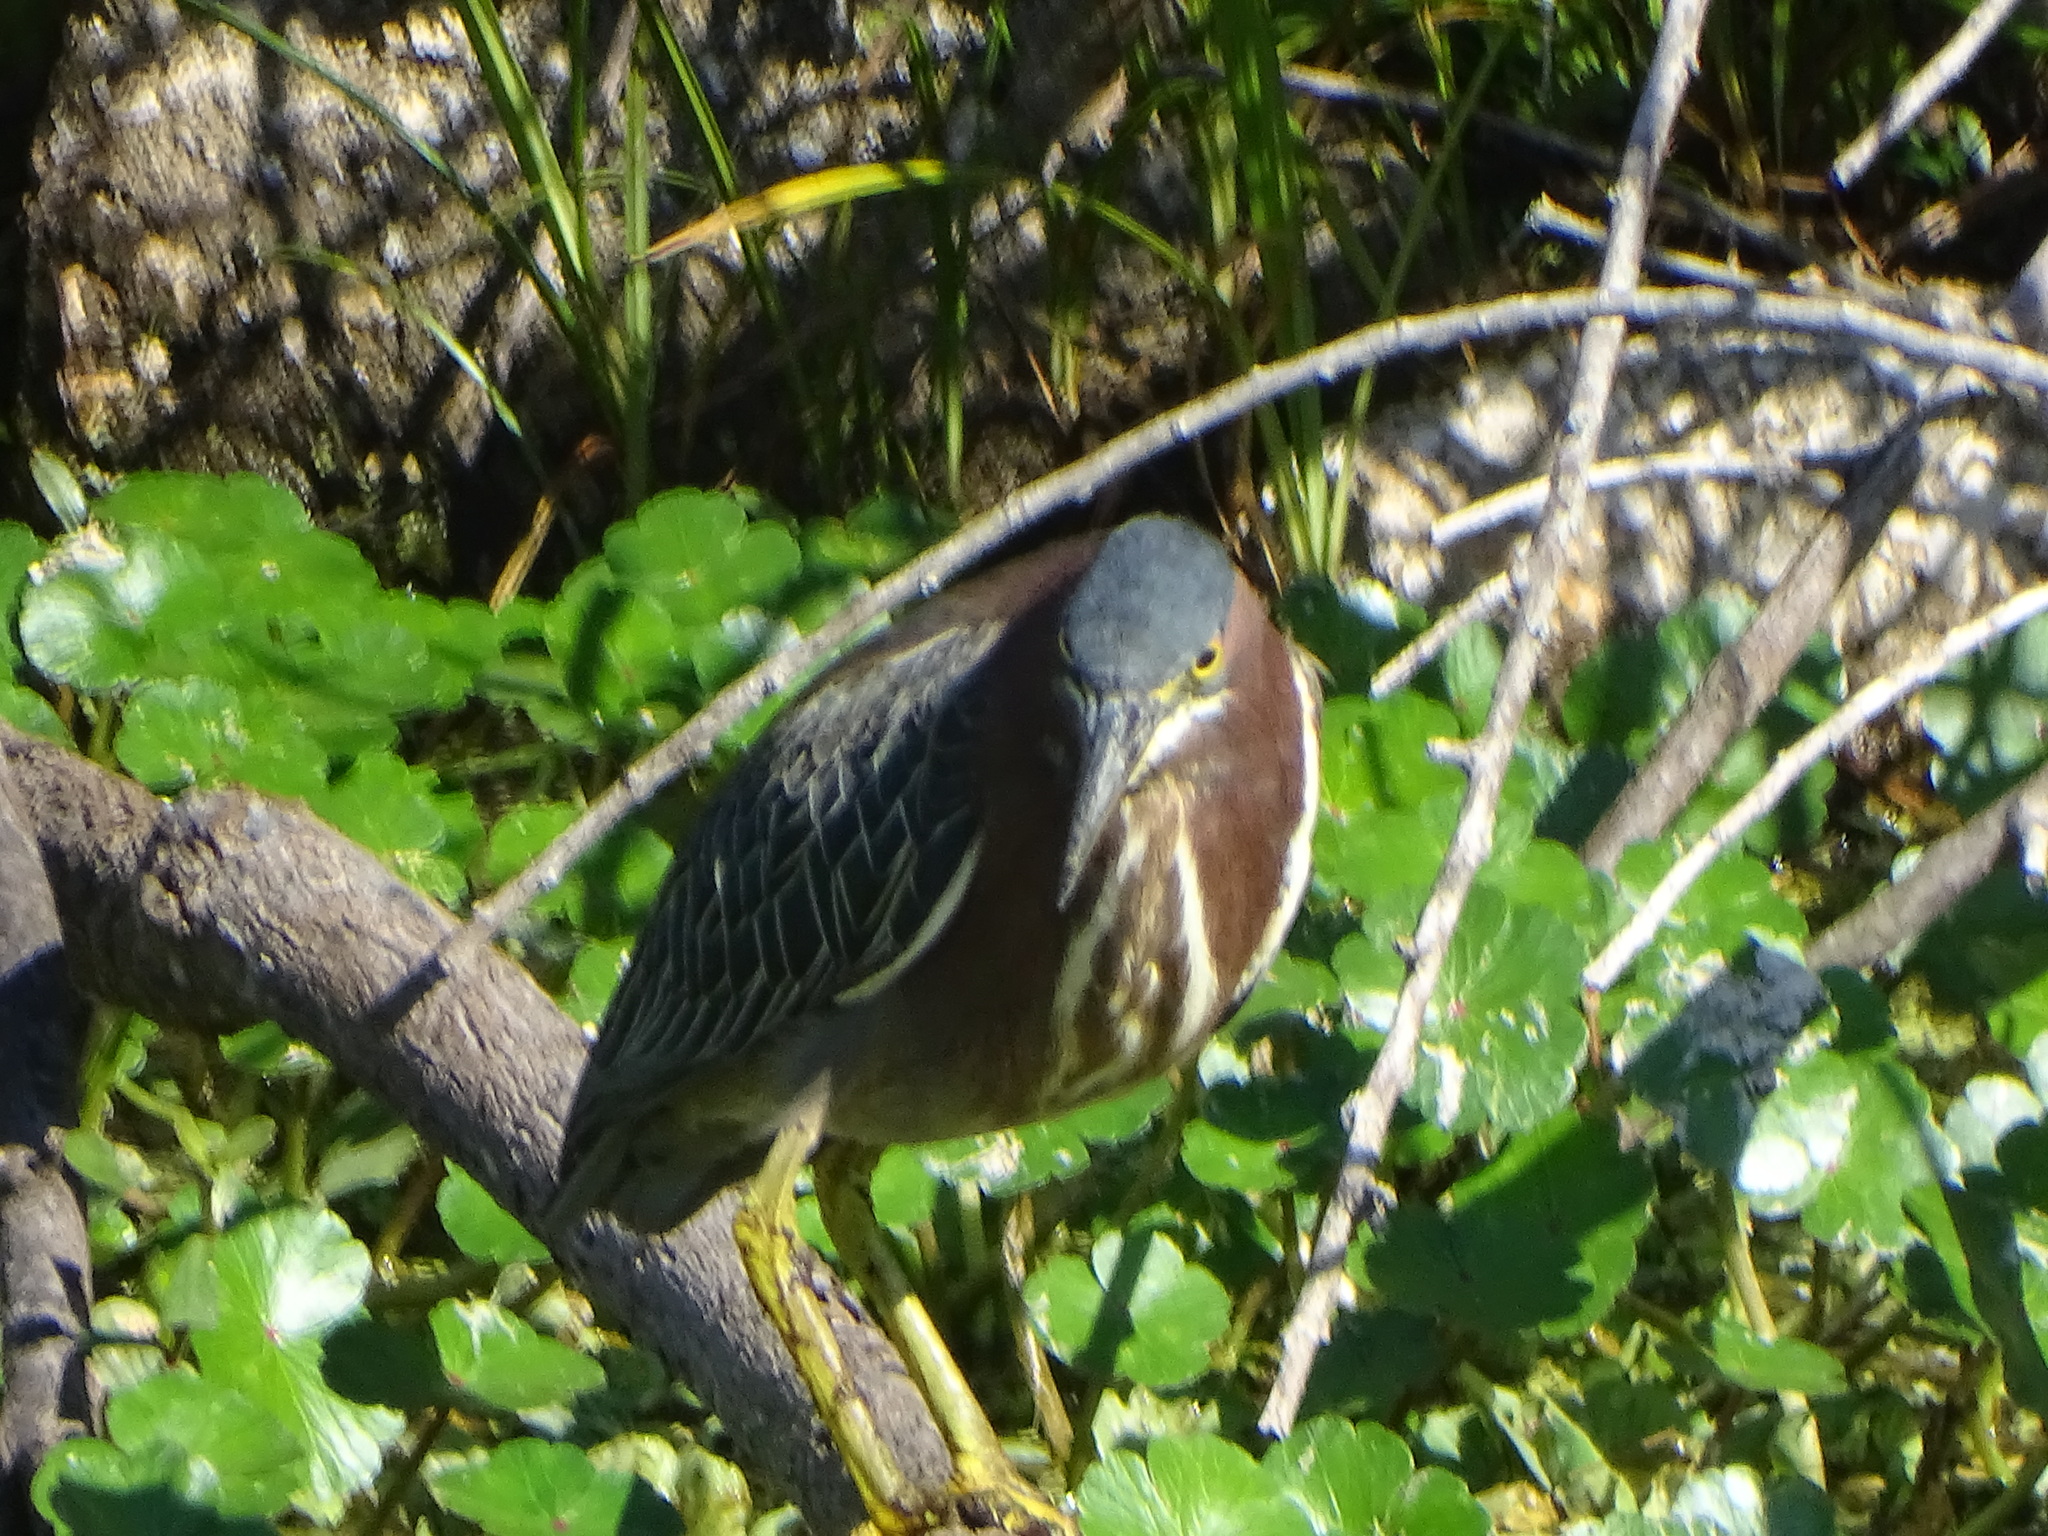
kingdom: Animalia
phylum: Chordata
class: Aves
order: Pelecaniformes
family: Ardeidae
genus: Butorides
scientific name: Butorides virescens
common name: Green heron
